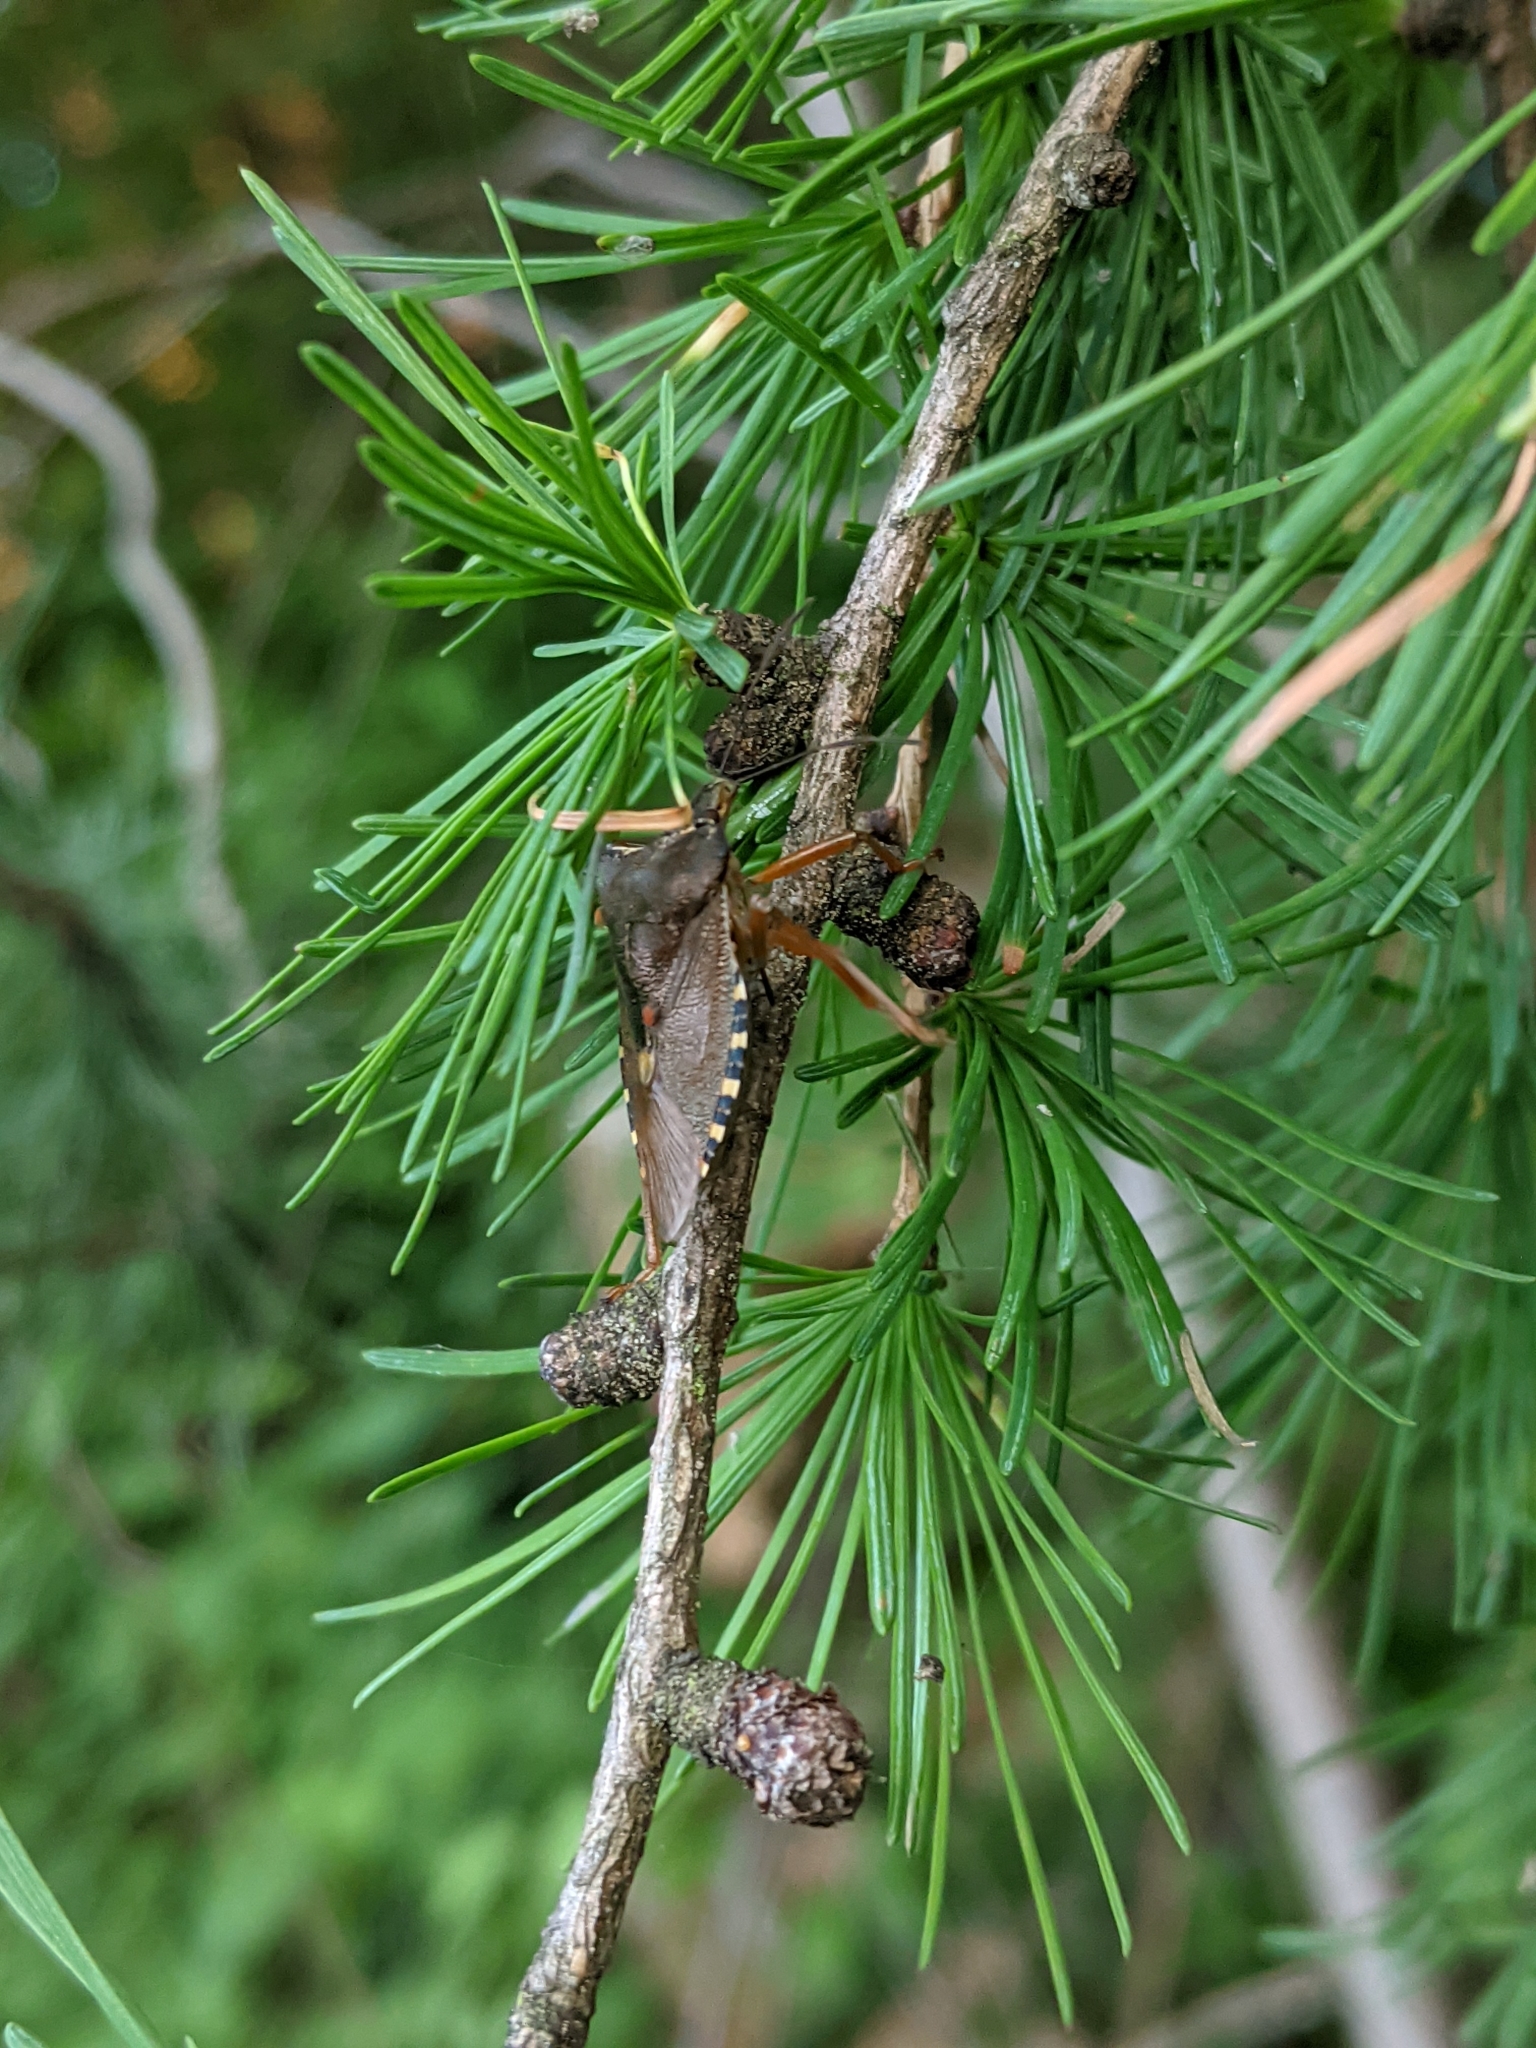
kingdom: Animalia
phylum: Arthropoda
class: Insecta
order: Hemiptera
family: Pentatomidae
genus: Pentatoma
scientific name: Pentatoma rufipes
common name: Forest bug
